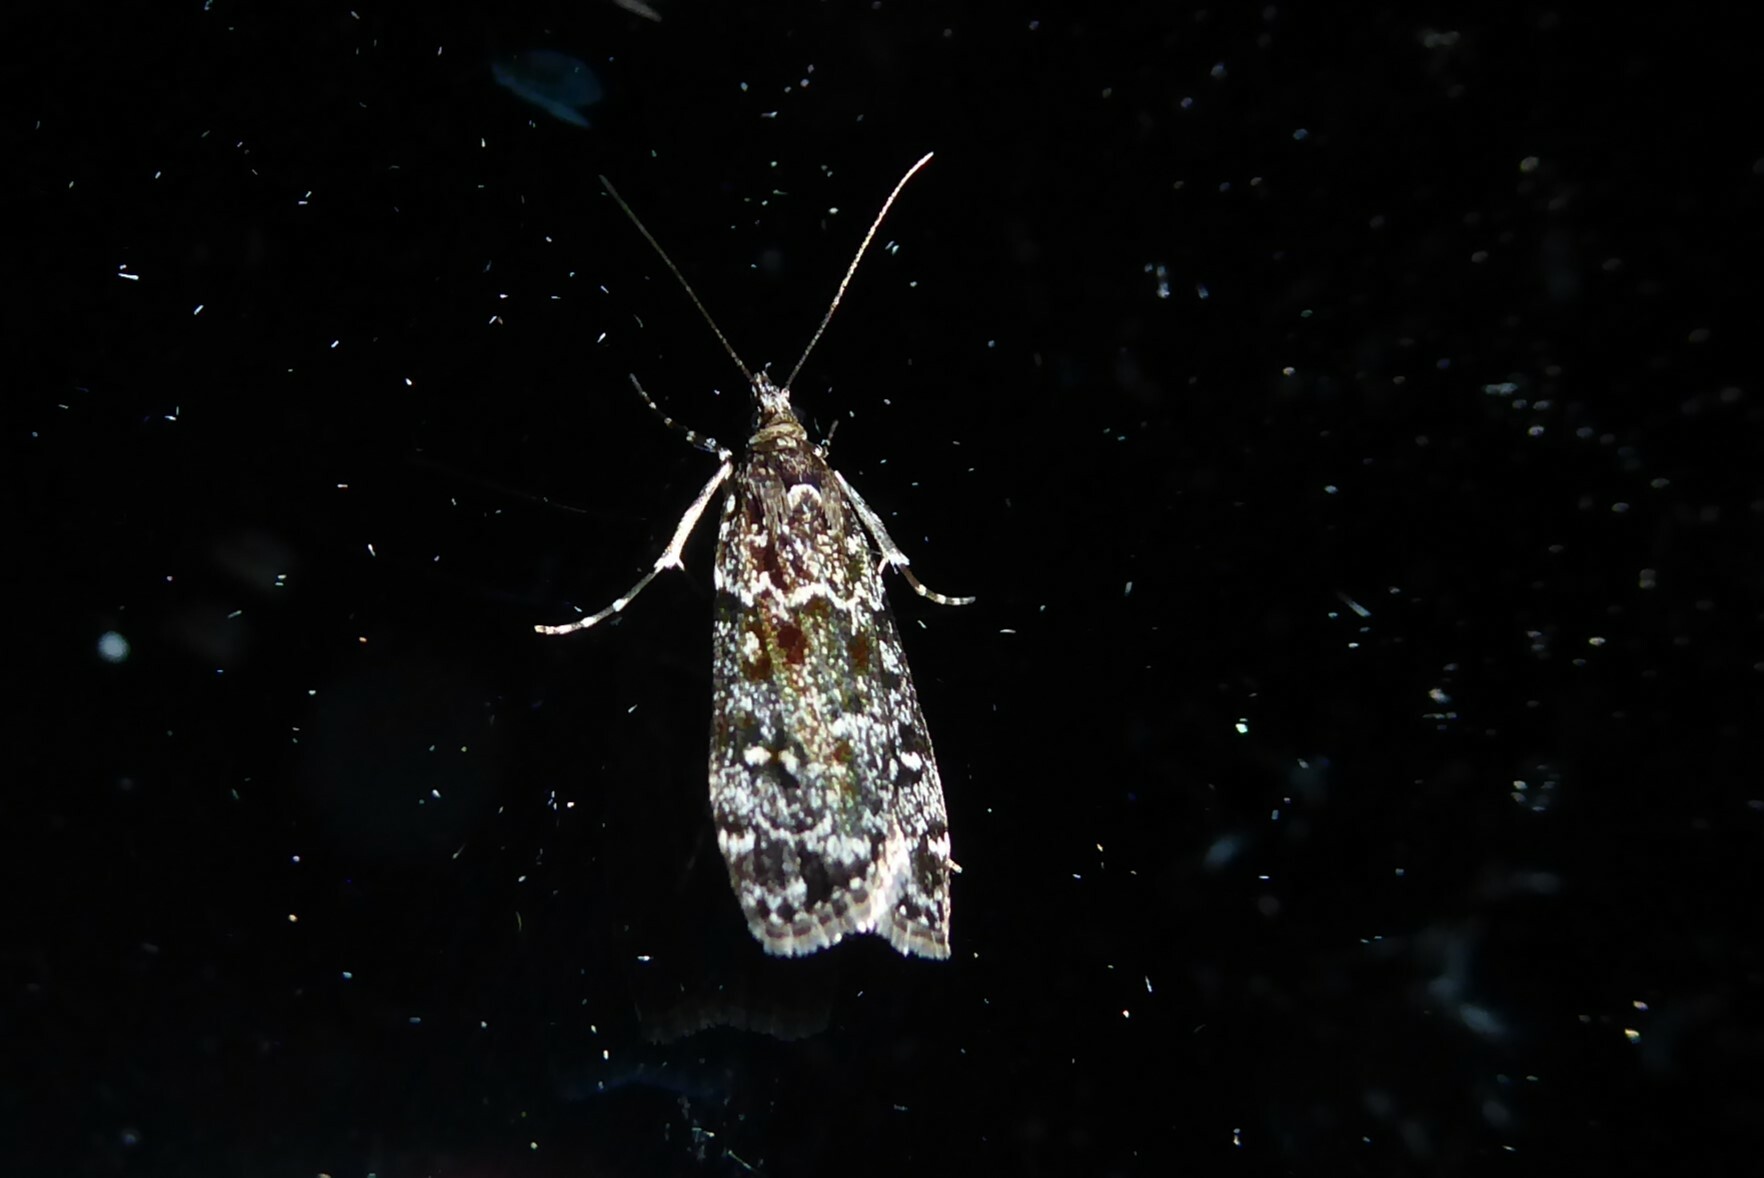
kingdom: Animalia
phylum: Arthropoda
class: Insecta
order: Lepidoptera
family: Crambidae
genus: Eudonia
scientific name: Eudonia philerga
